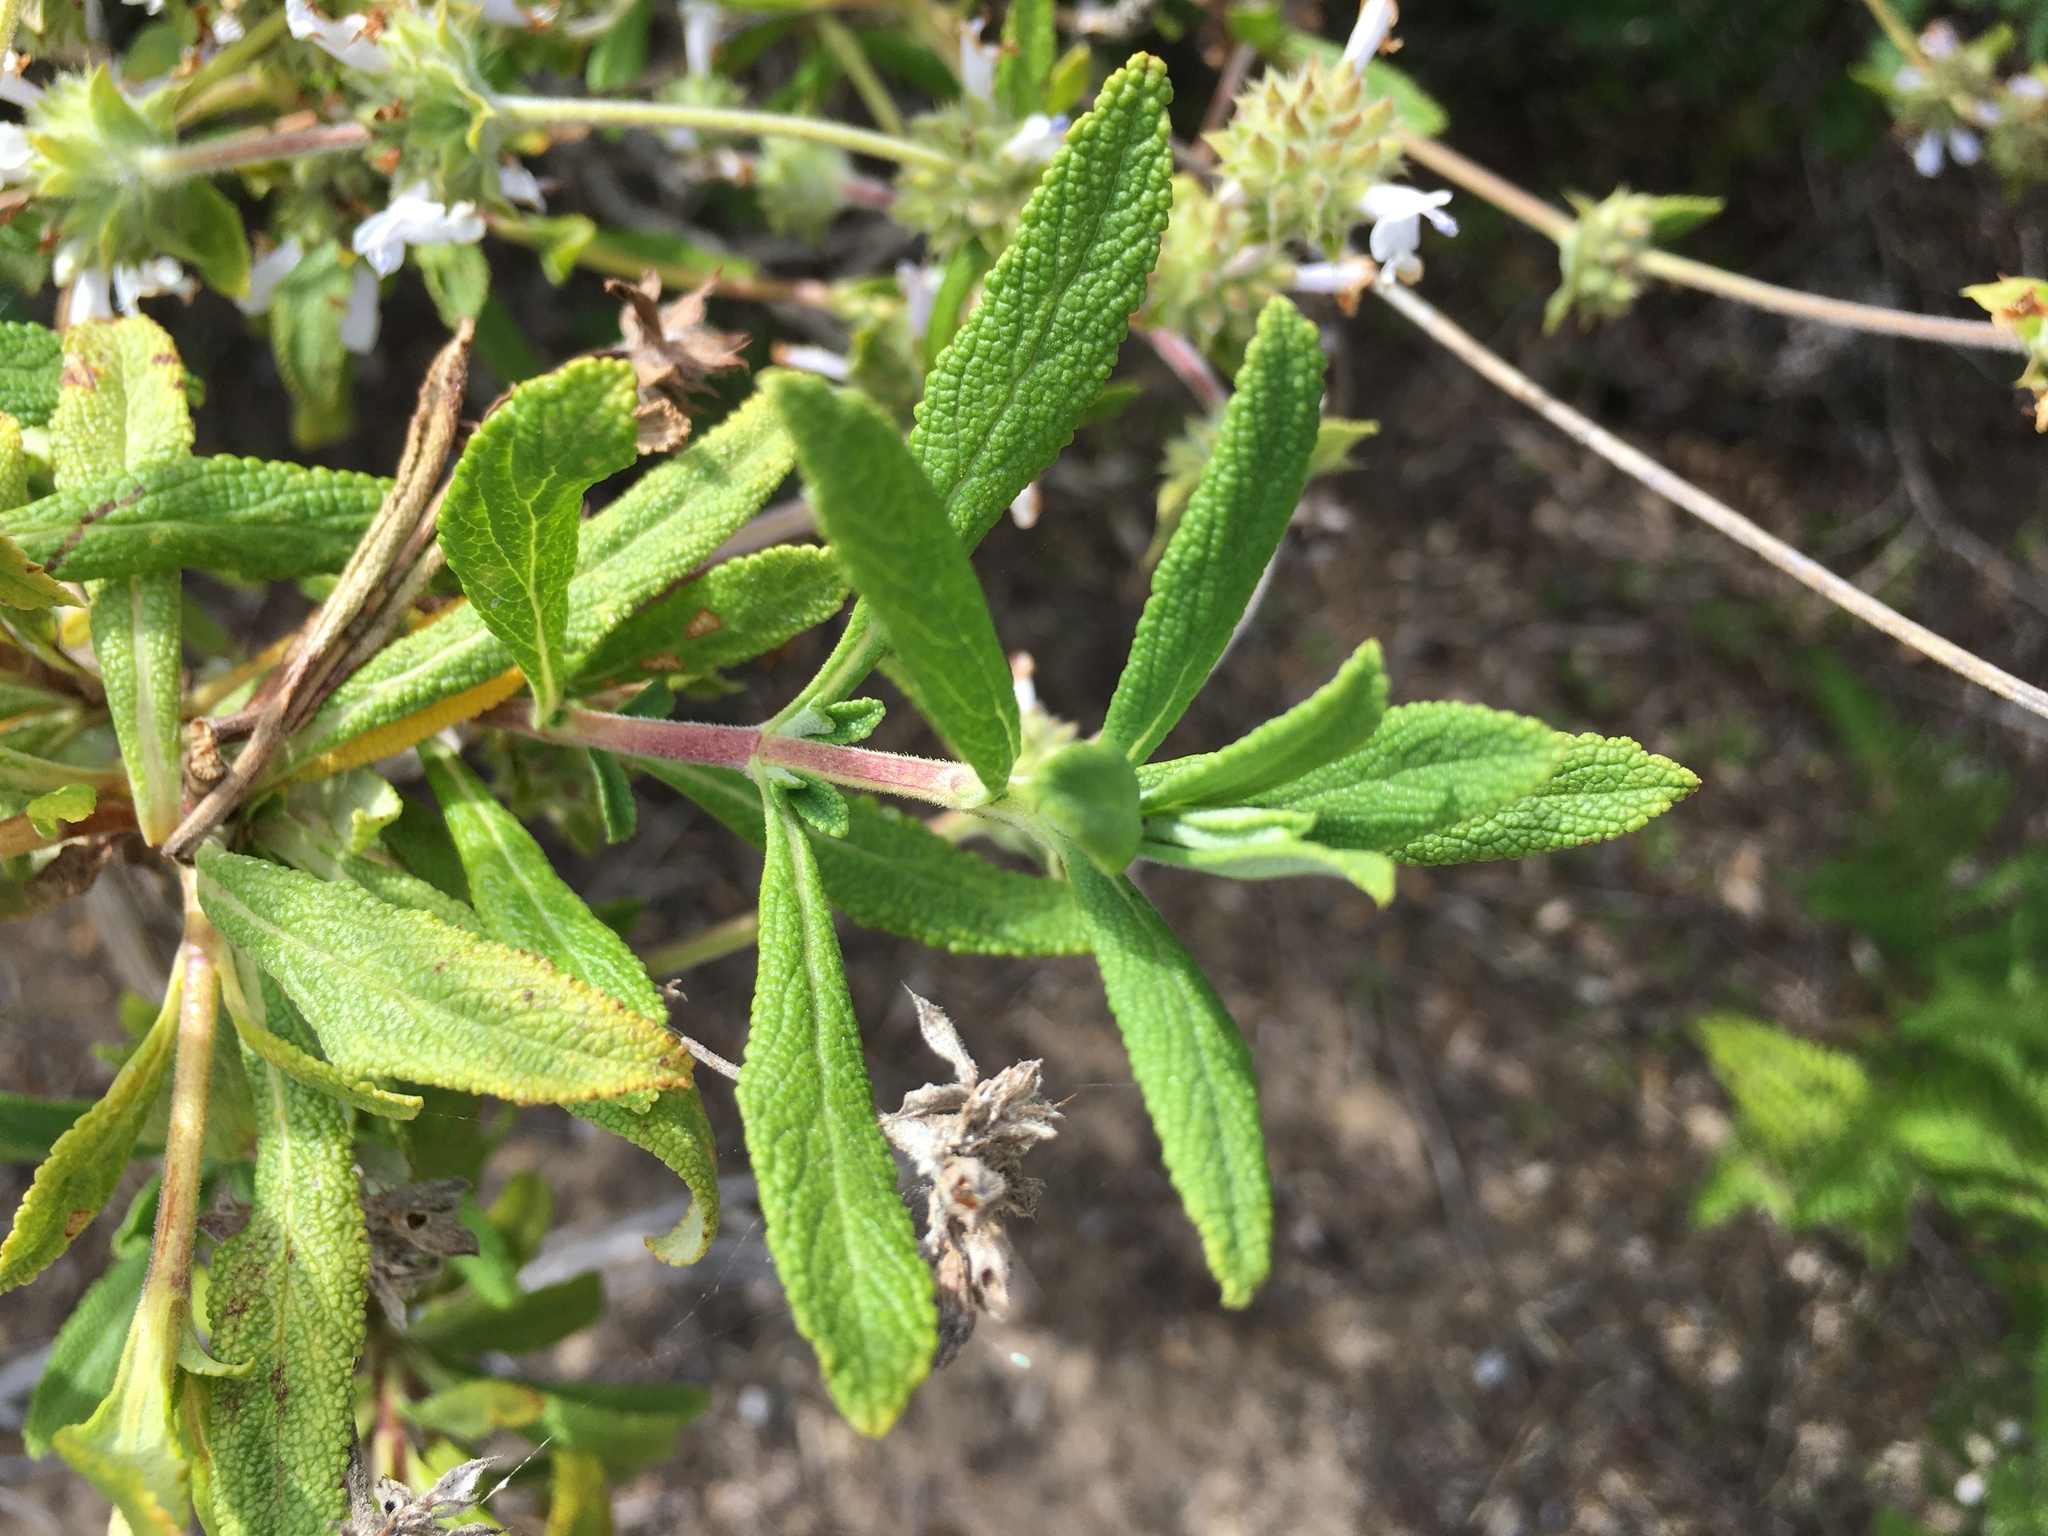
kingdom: Plantae
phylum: Tracheophyta
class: Magnoliopsida
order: Lamiales
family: Lamiaceae
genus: Salvia
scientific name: Salvia mellifera
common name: Black sage
